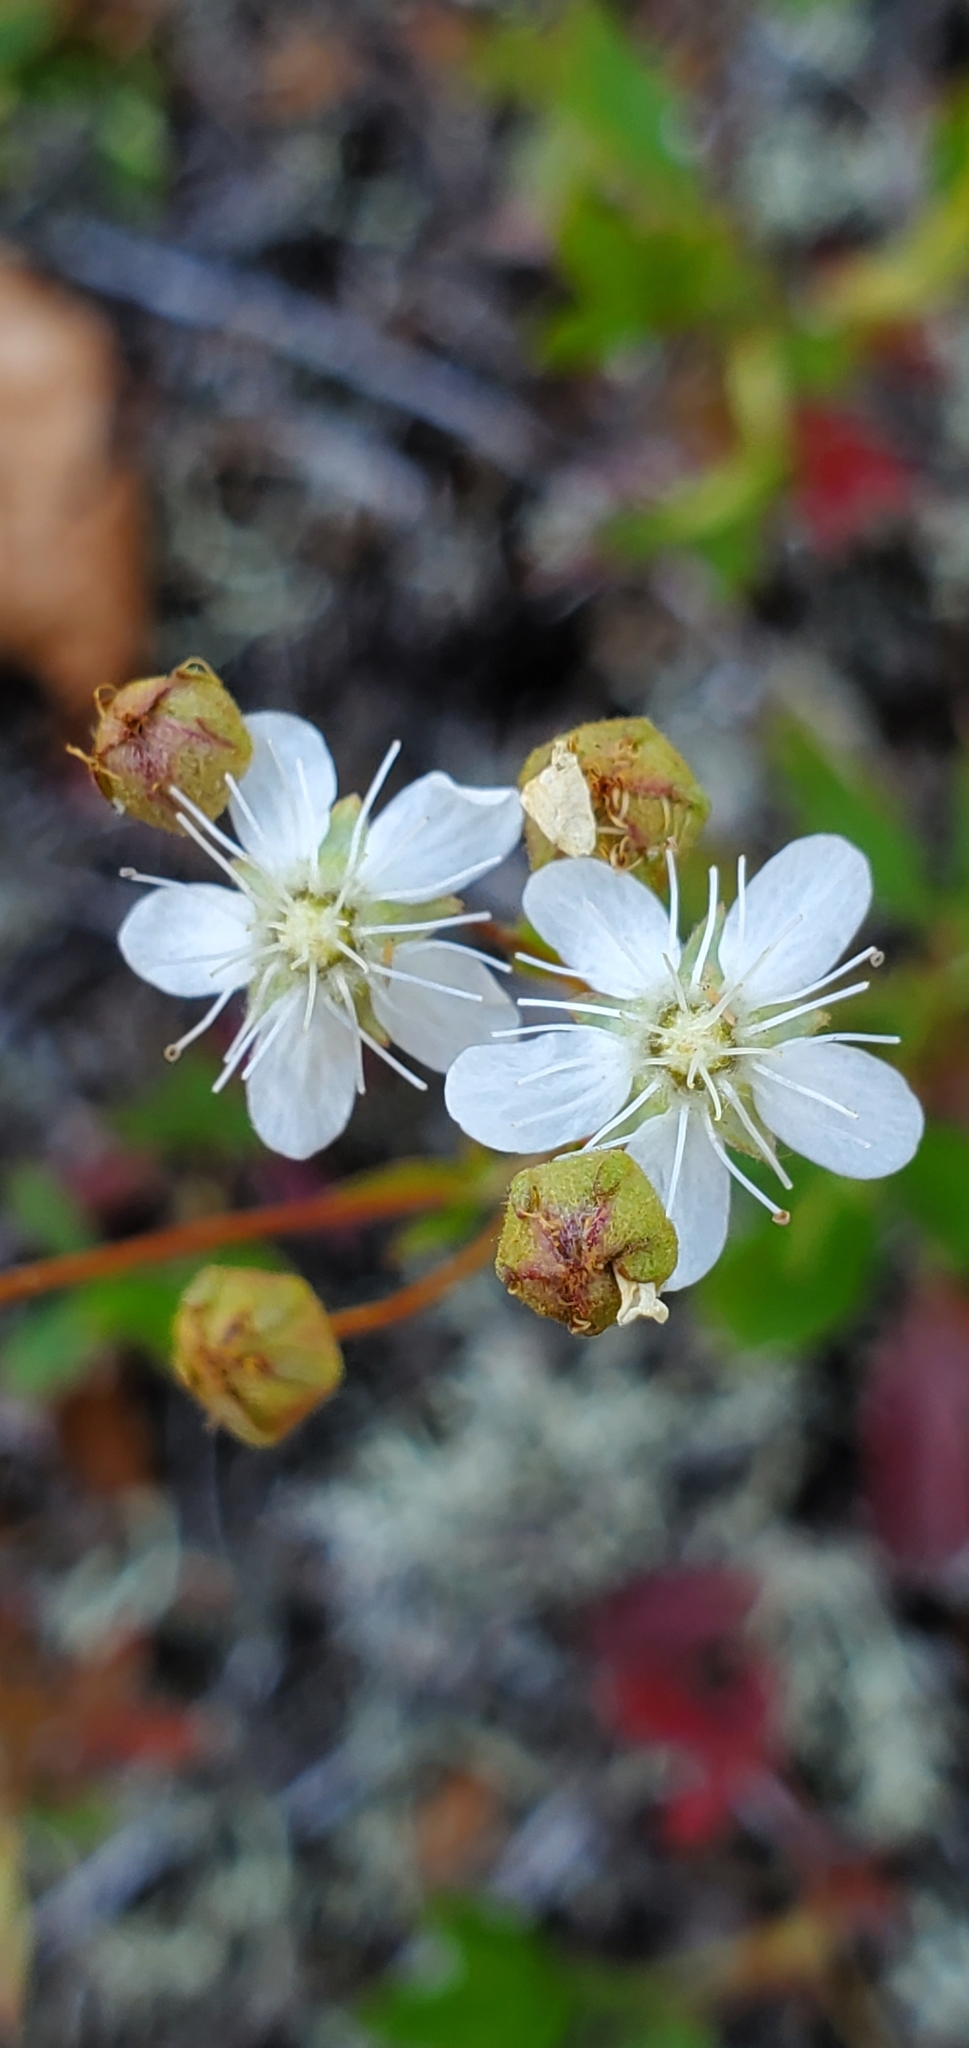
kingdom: Plantae
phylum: Tracheophyta
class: Magnoliopsida
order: Rosales
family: Rosaceae
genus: Sibbaldia
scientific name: Sibbaldia tridentata
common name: Three-toothed cinquefoil
